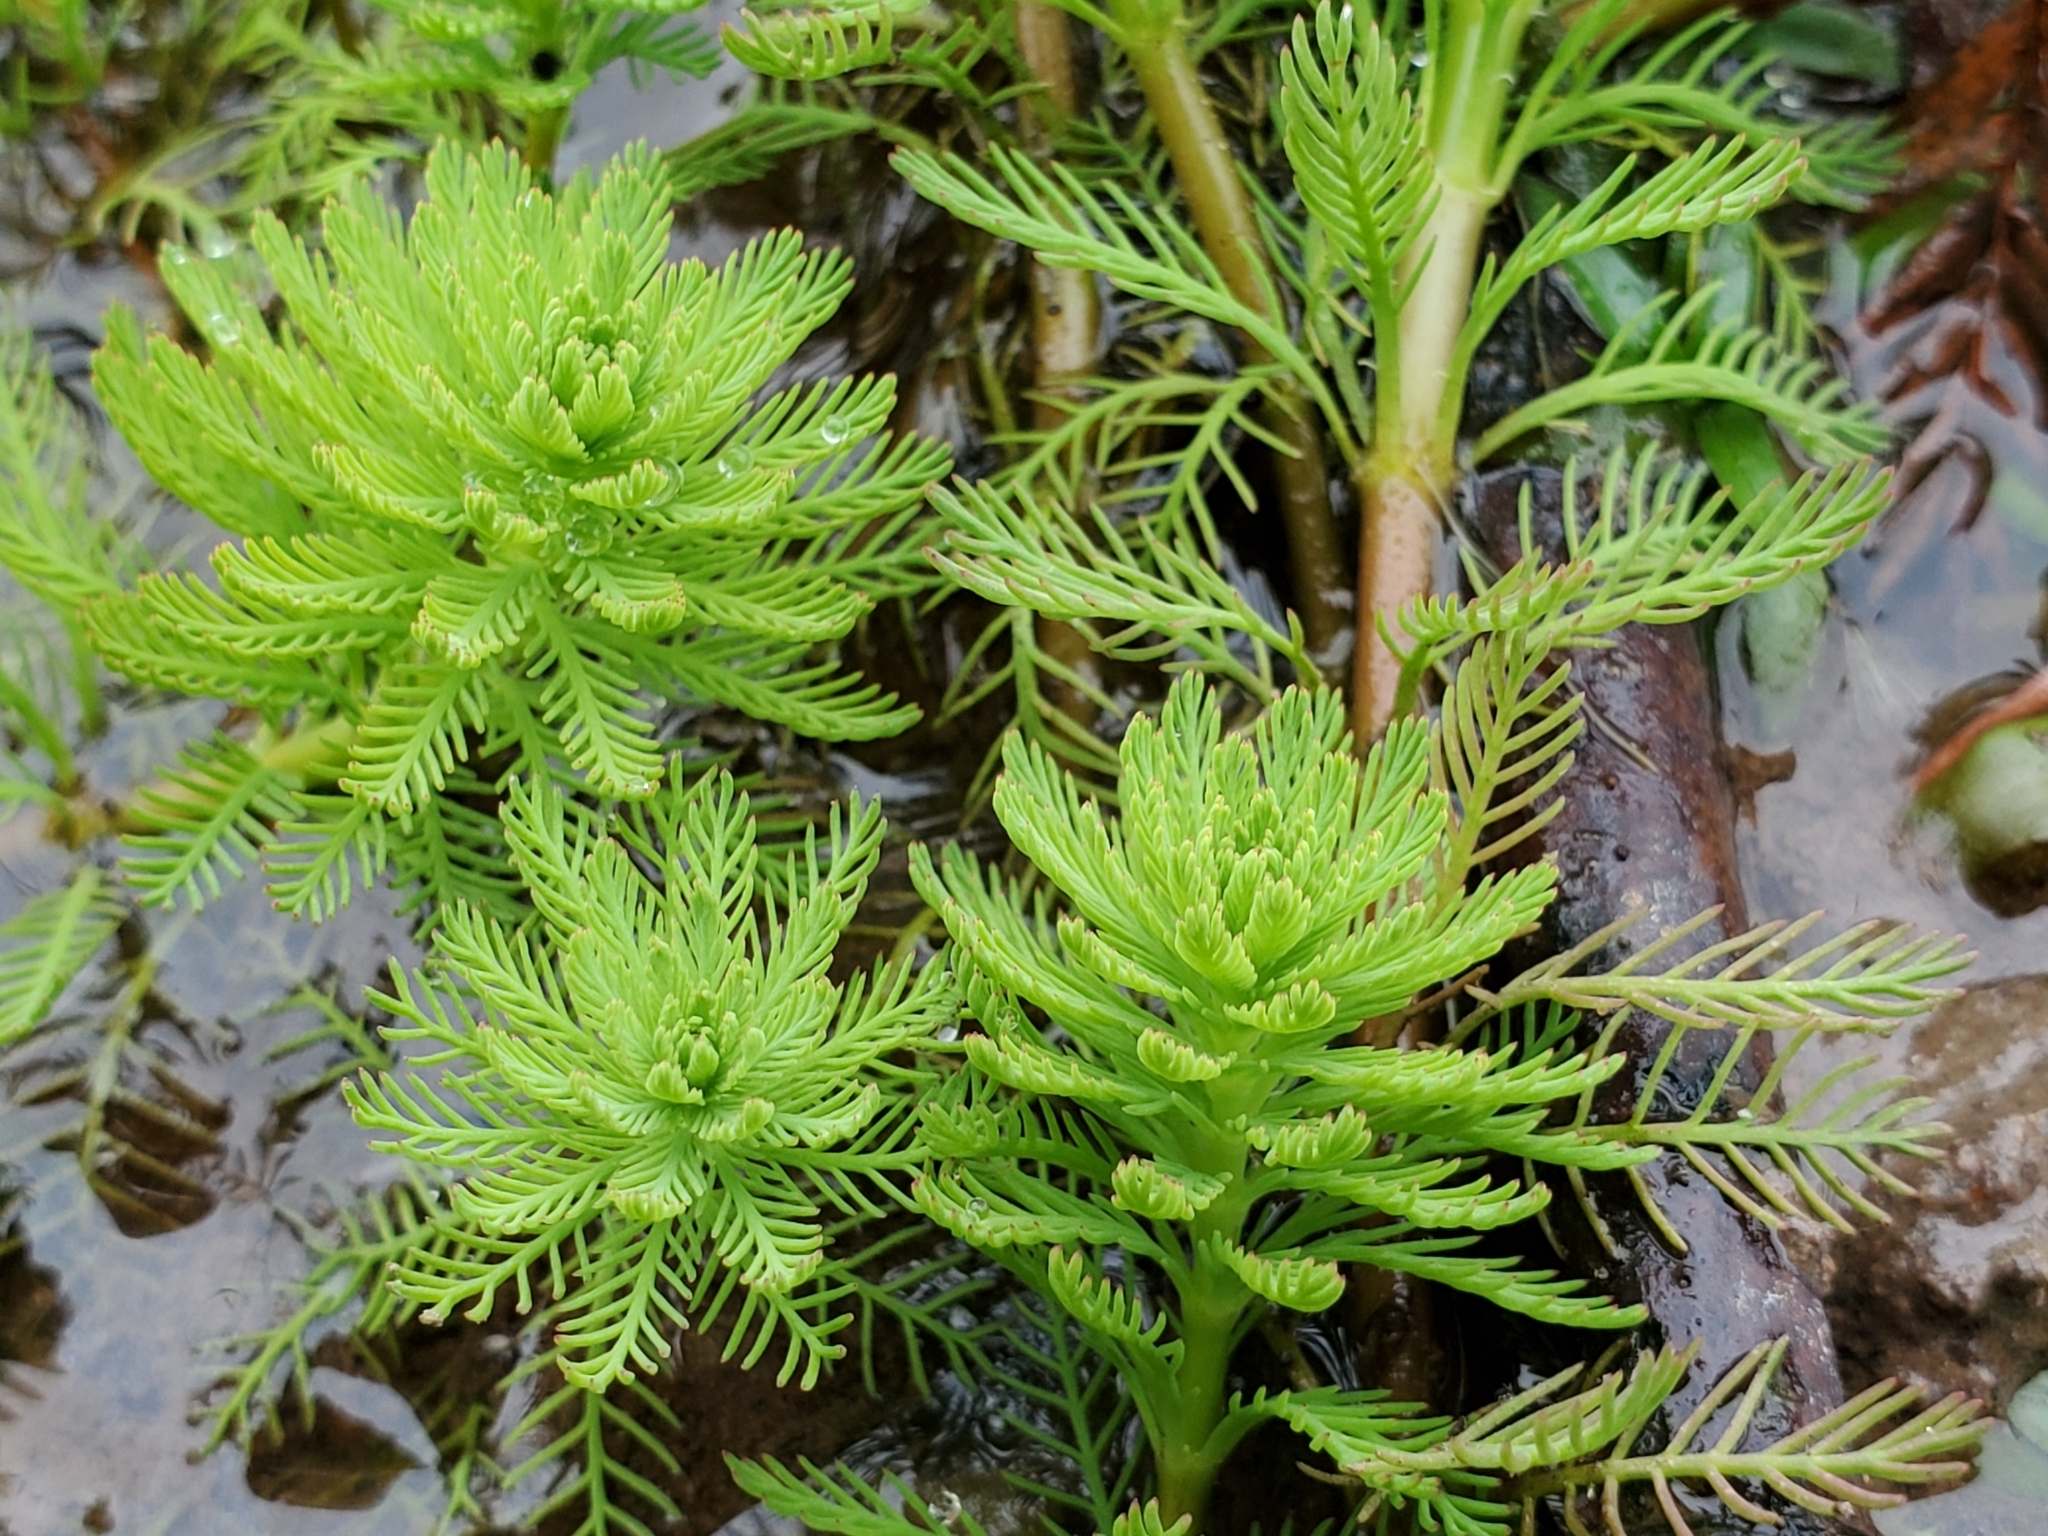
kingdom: Plantae
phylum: Tracheophyta
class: Magnoliopsida
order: Saxifragales
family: Haloragaceae
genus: Myriophyllum
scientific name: Myriophyllum aquaticum
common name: Parrot's feather
